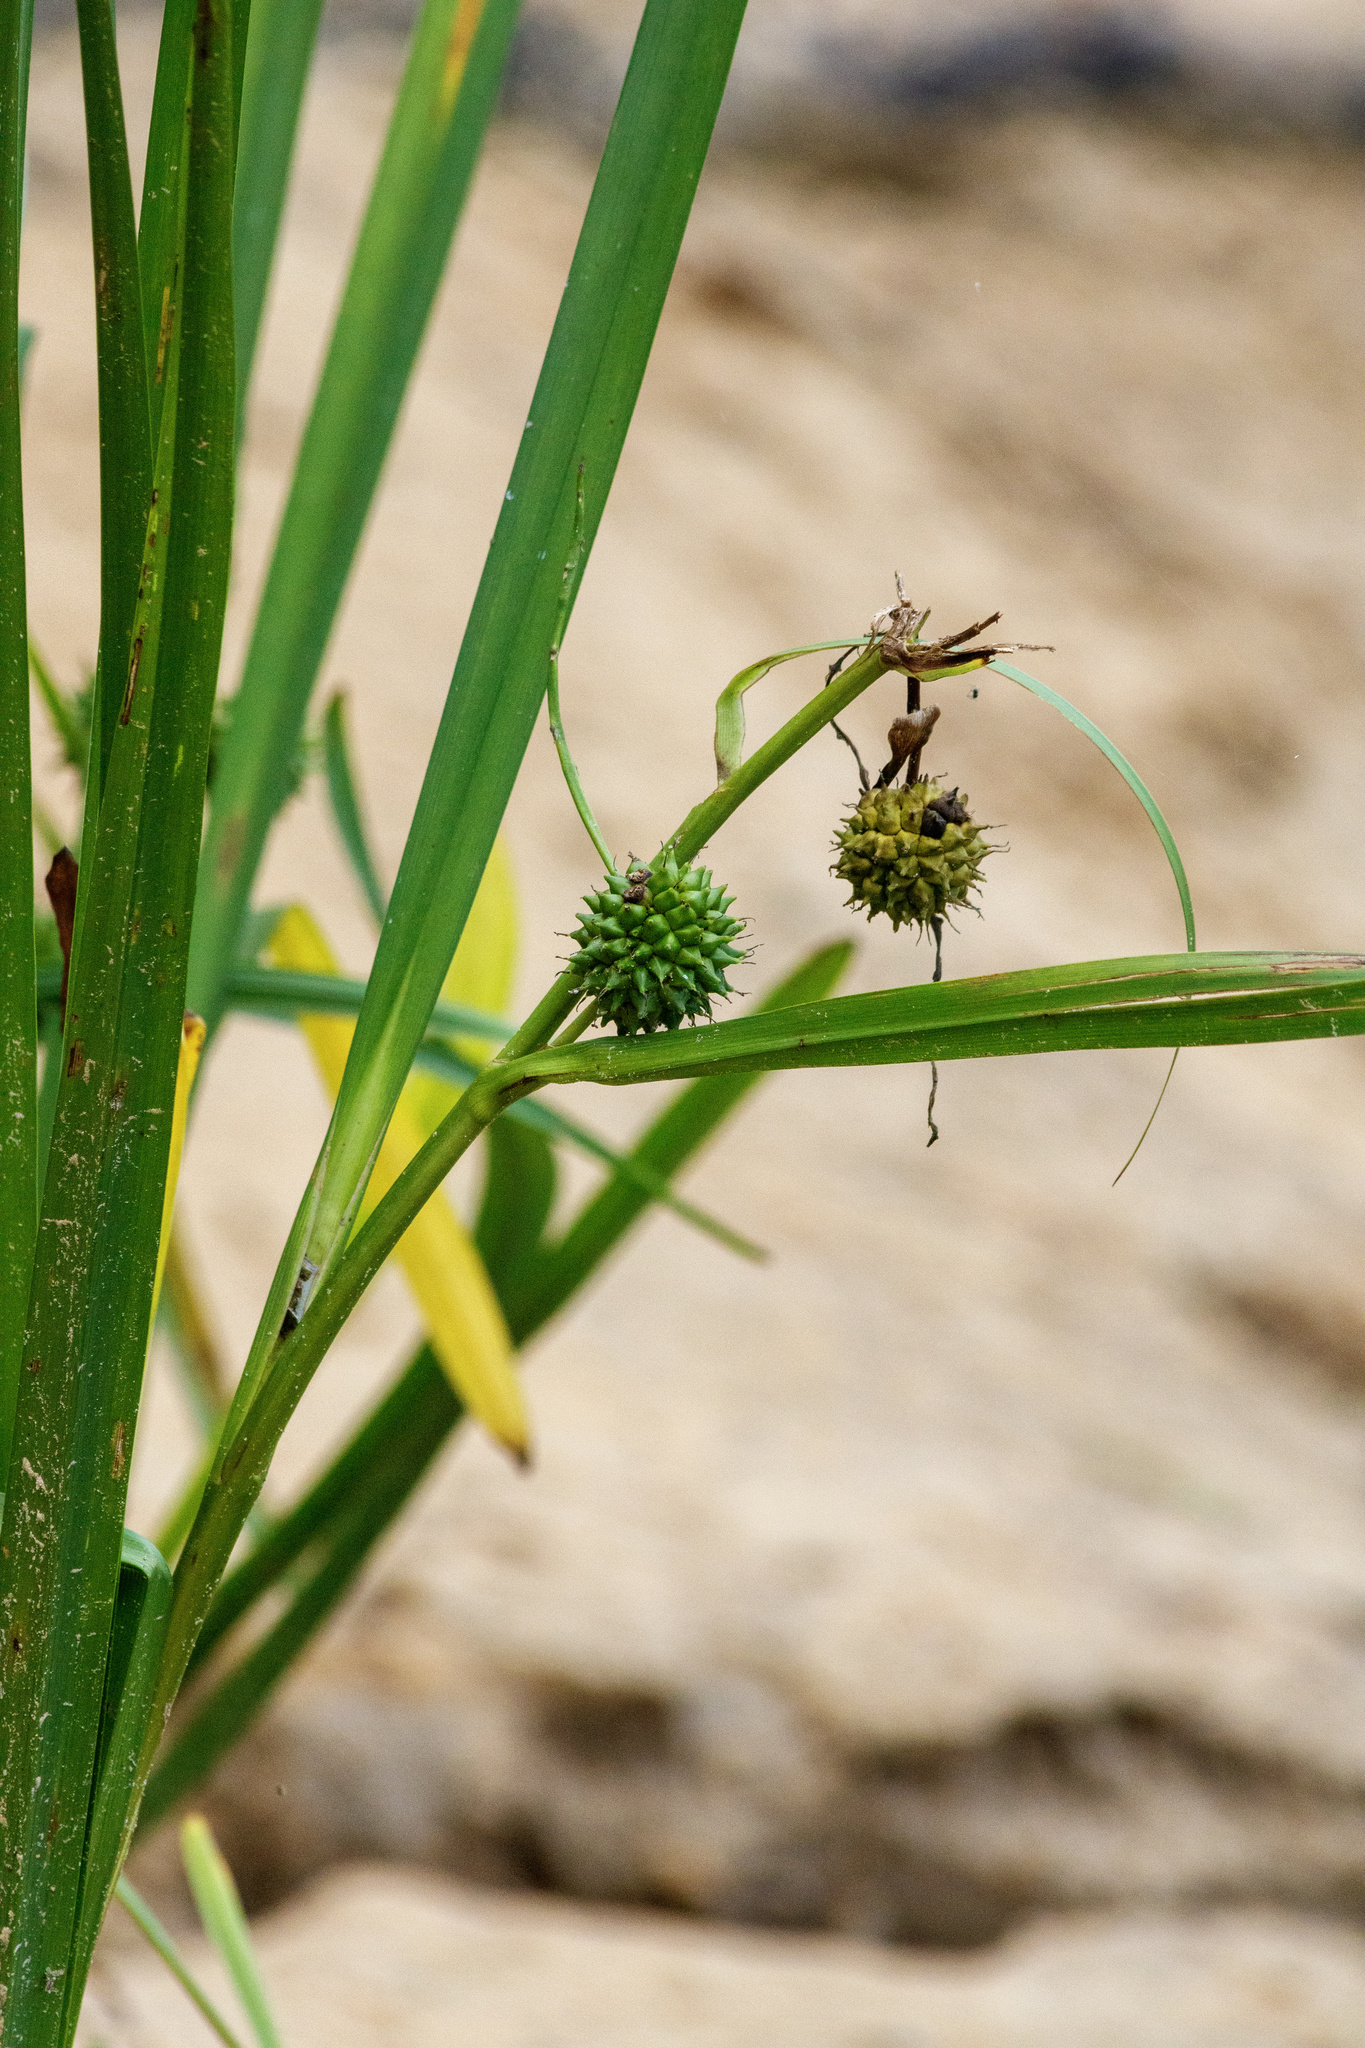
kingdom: Plantae
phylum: Tracheophyta
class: Liliopsida
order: Poales
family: Typhaceae
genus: Sparganium
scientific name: Sparganium erectum
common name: Branched bur-reed
